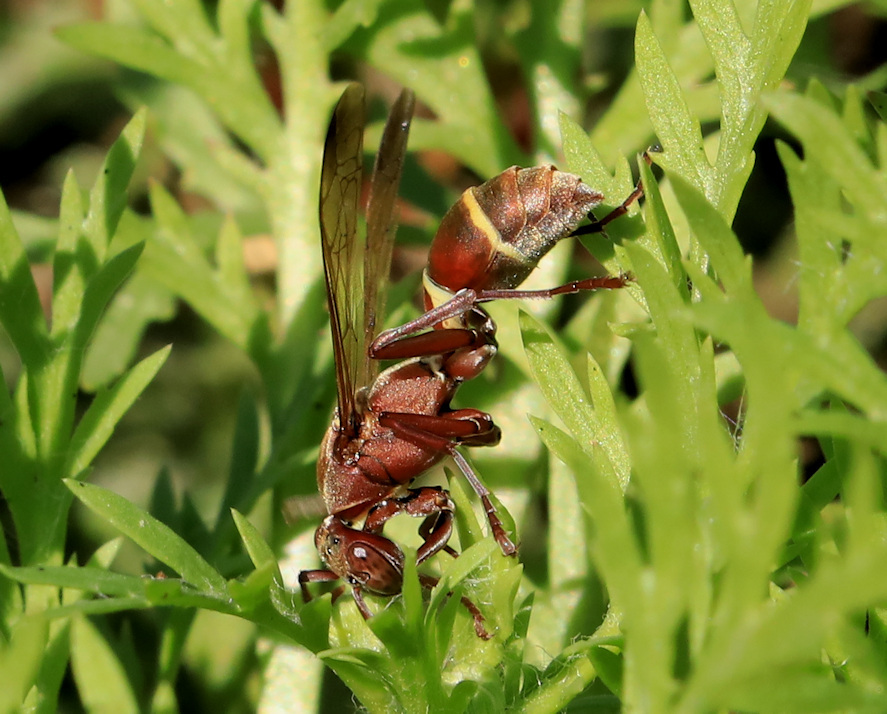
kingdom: Animalia
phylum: Arthropoda
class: Insecta
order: Hymenoptera
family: Eumenidae
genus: Polistes
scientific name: Polistes africanus
